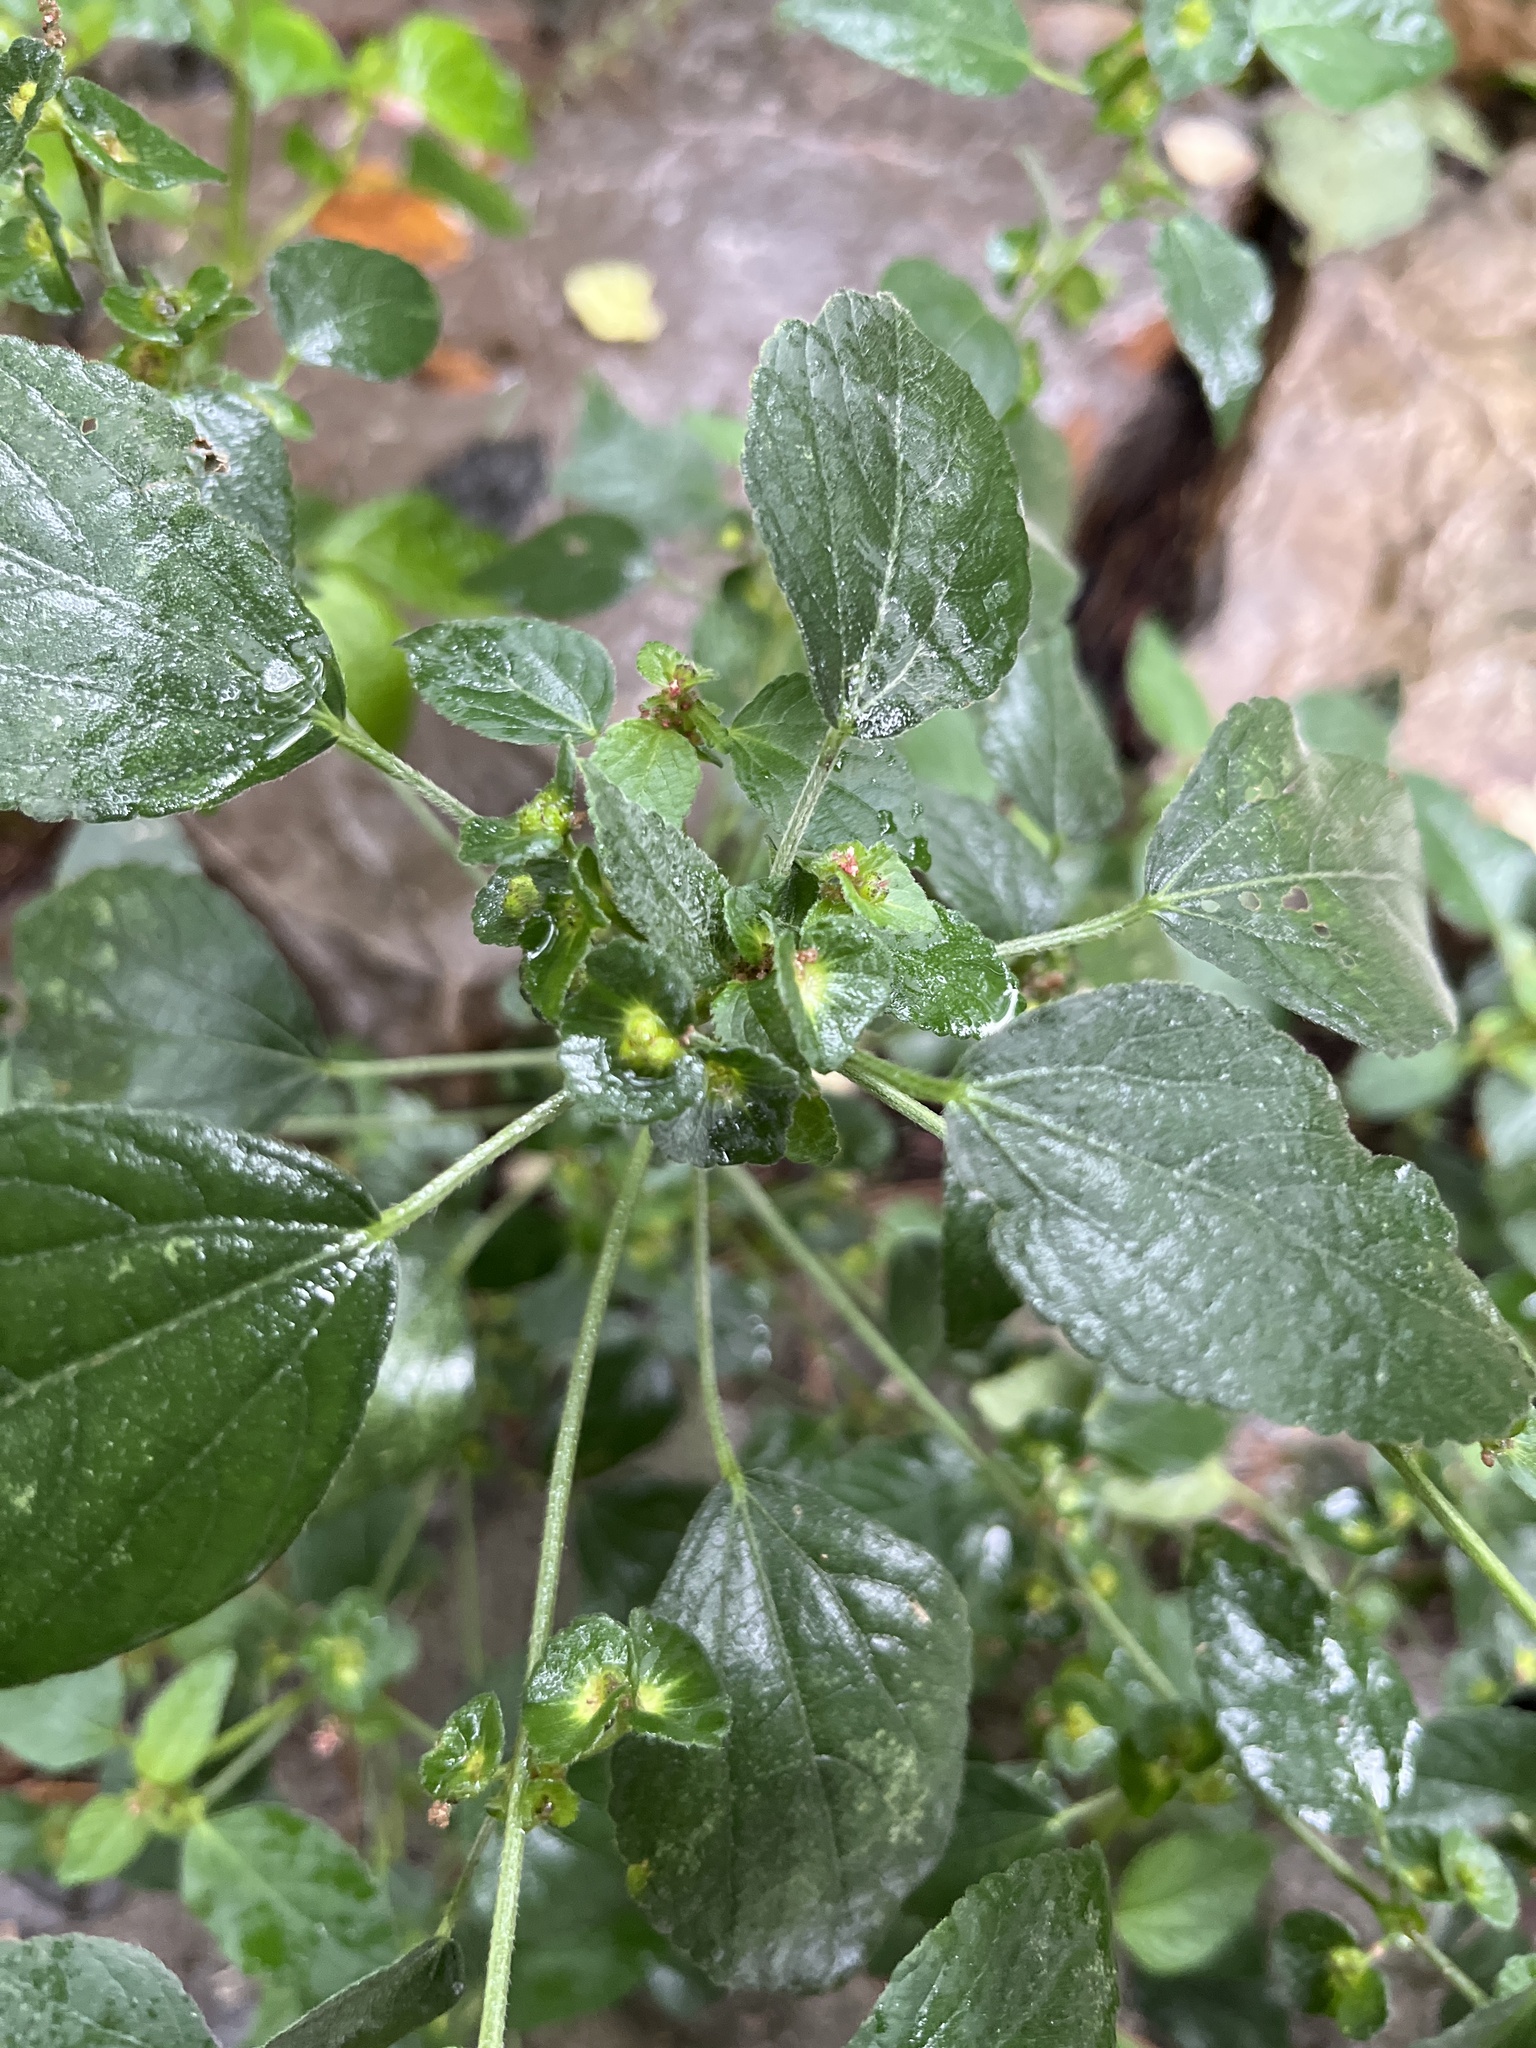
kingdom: Plantae
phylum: Tracheophyta
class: Magnoliopsida
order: Malpighiales
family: Euphorbiaceae
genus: Acalypha
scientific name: Acalypha australis
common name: Asian copperleaf
